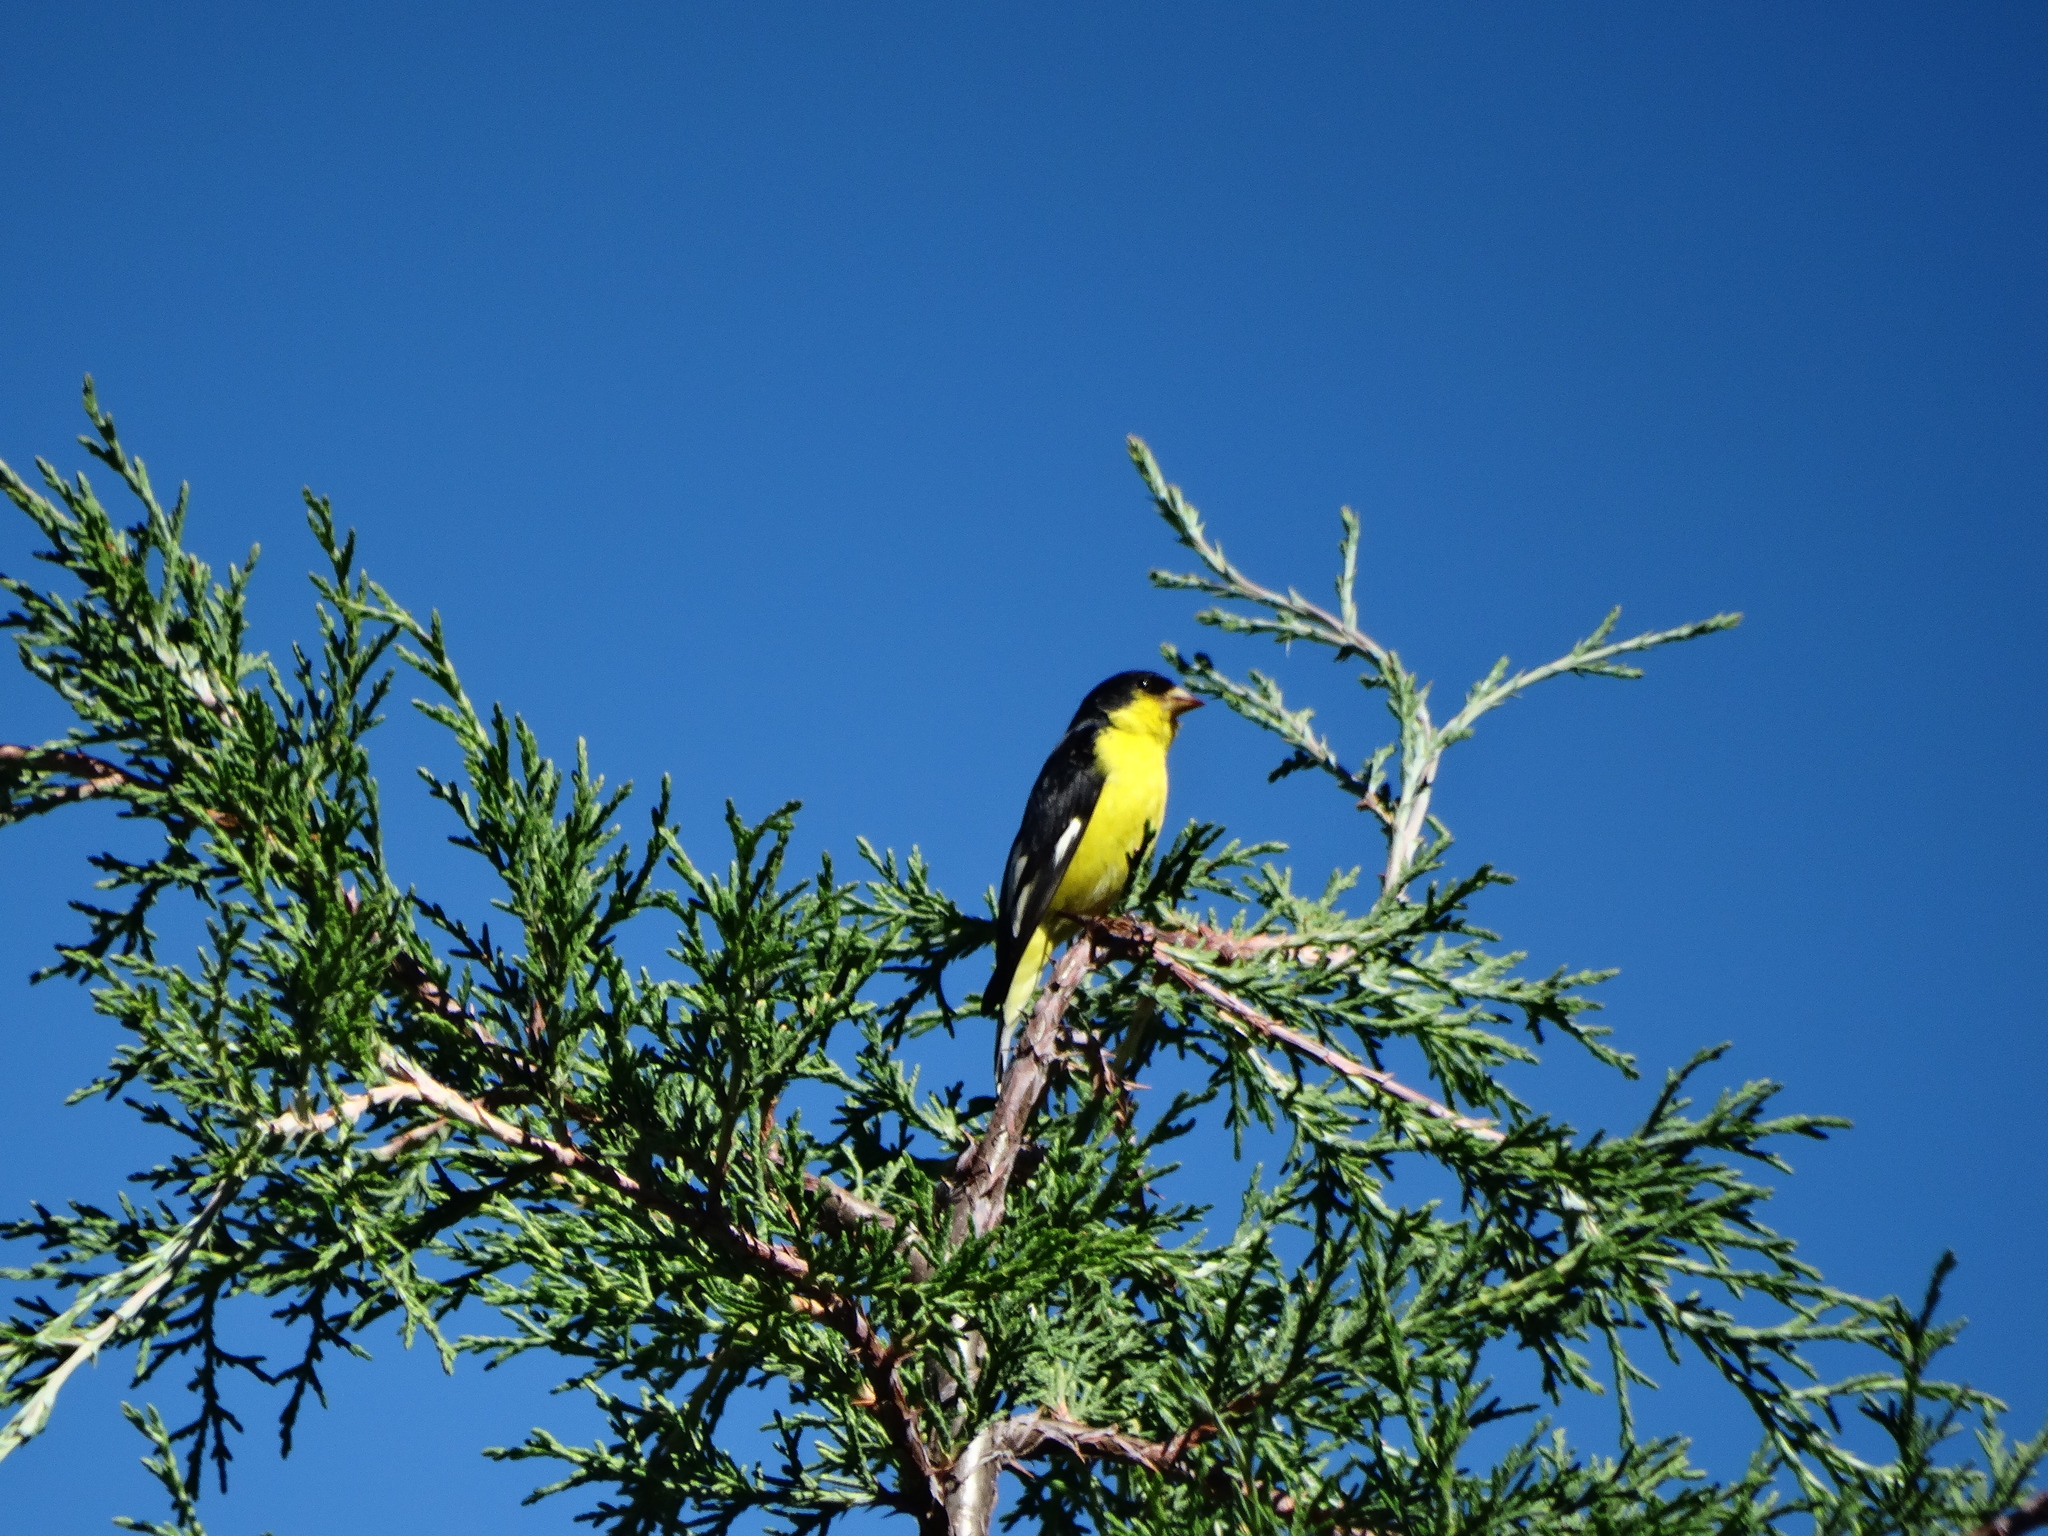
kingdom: Animalia
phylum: Chordata
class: Aves
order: Passeriformes
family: Fringillidae
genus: Spinus
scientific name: Spinus psaltria
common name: Lesser goldfinch
